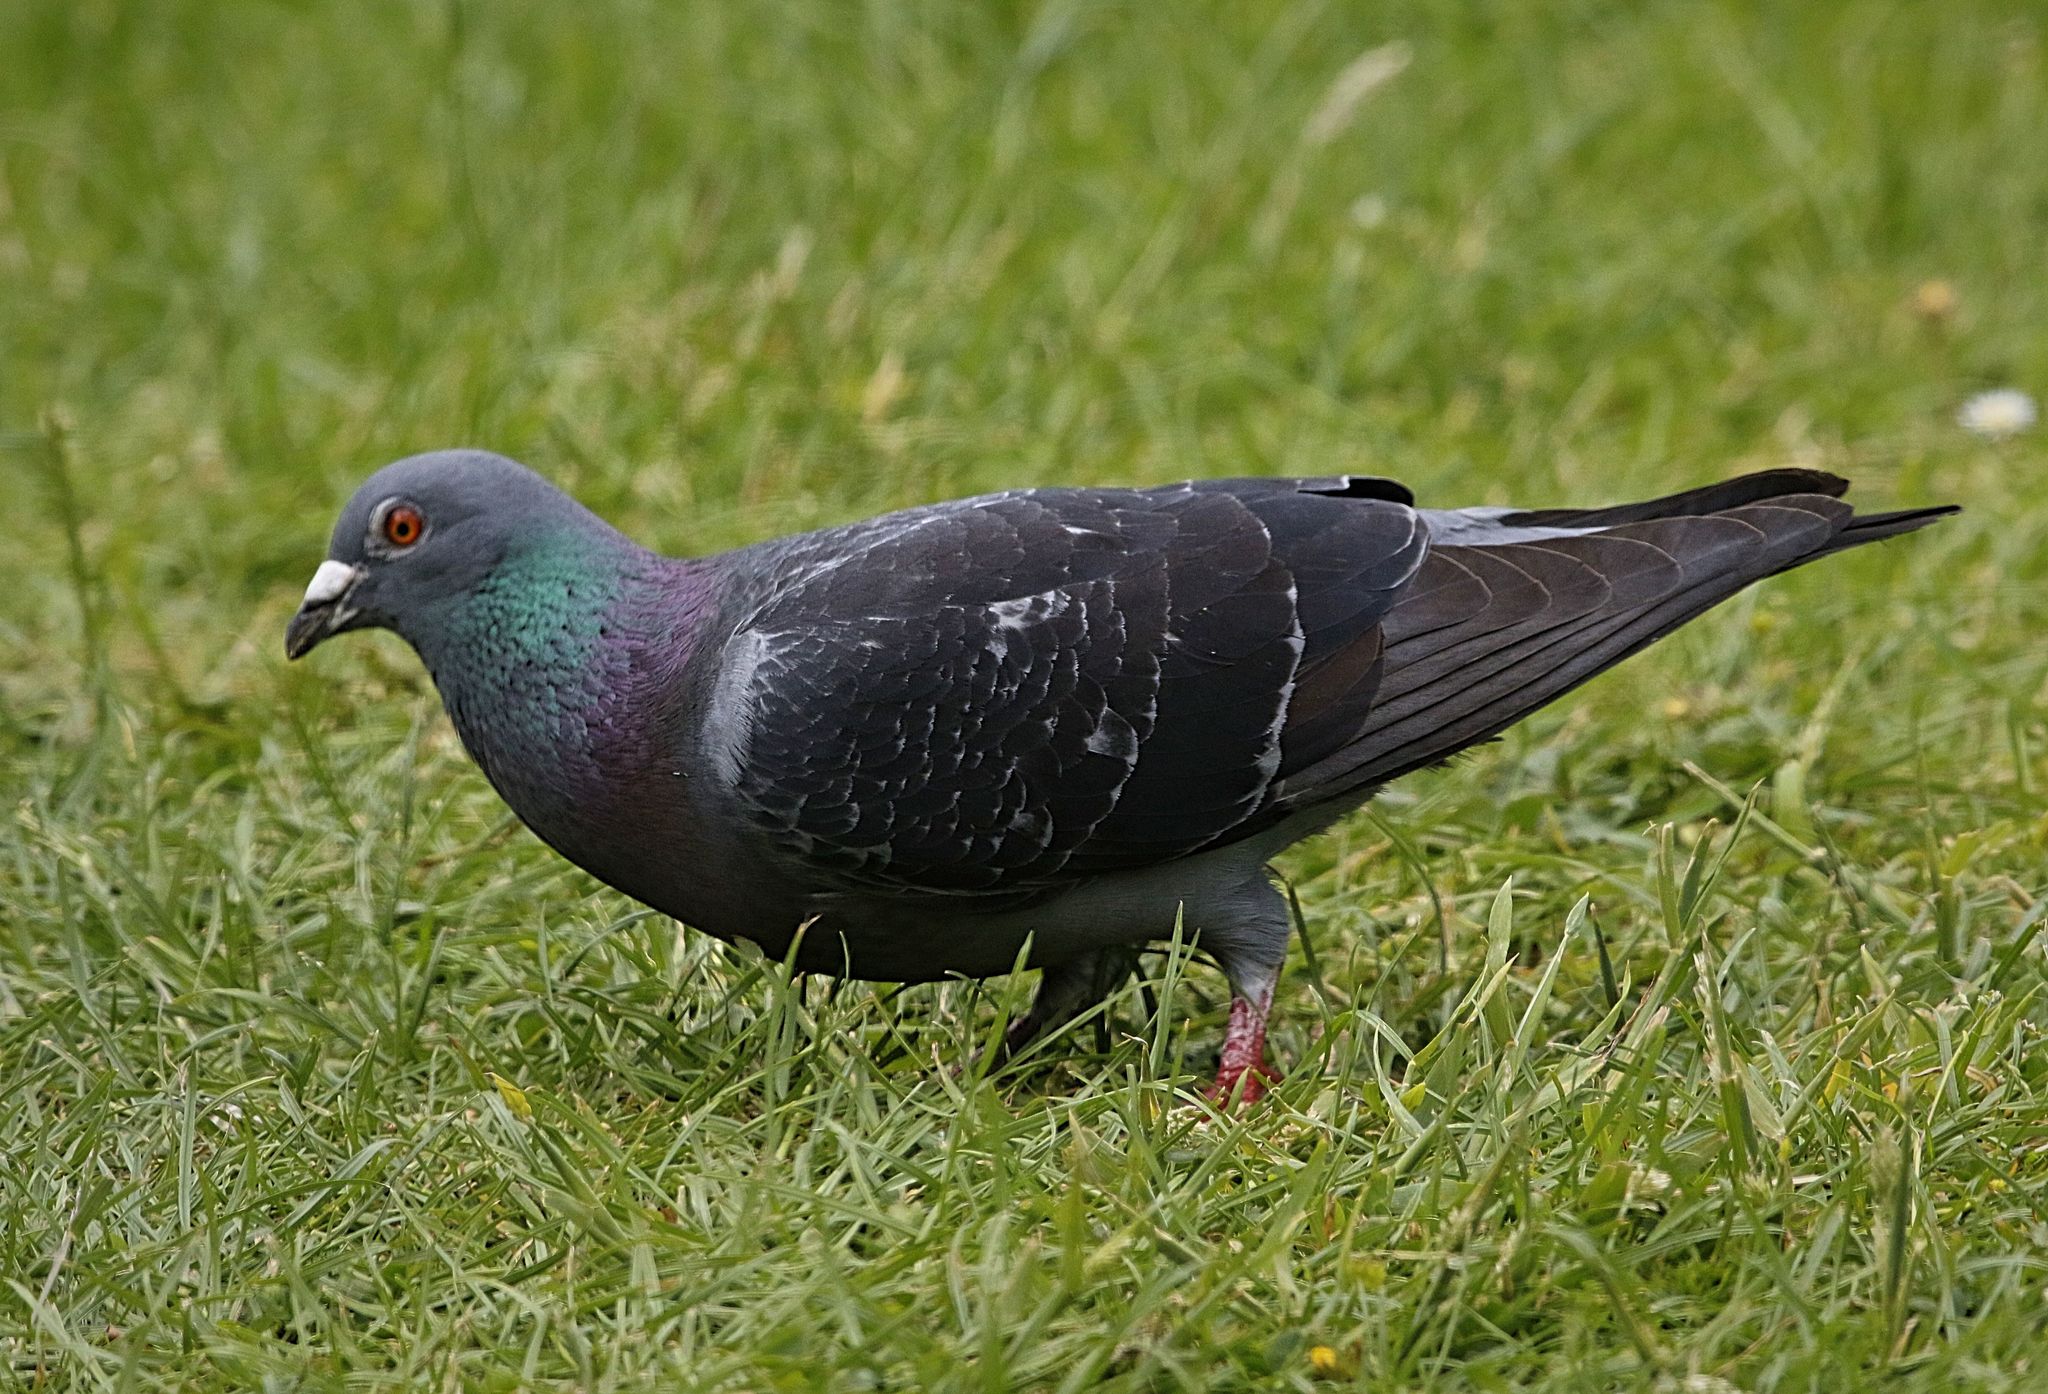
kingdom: Animalia
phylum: Chordata
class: Aves
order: Columbiformes
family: Columbidae
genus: Columba
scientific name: Columba livia
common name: Rock pigeon
